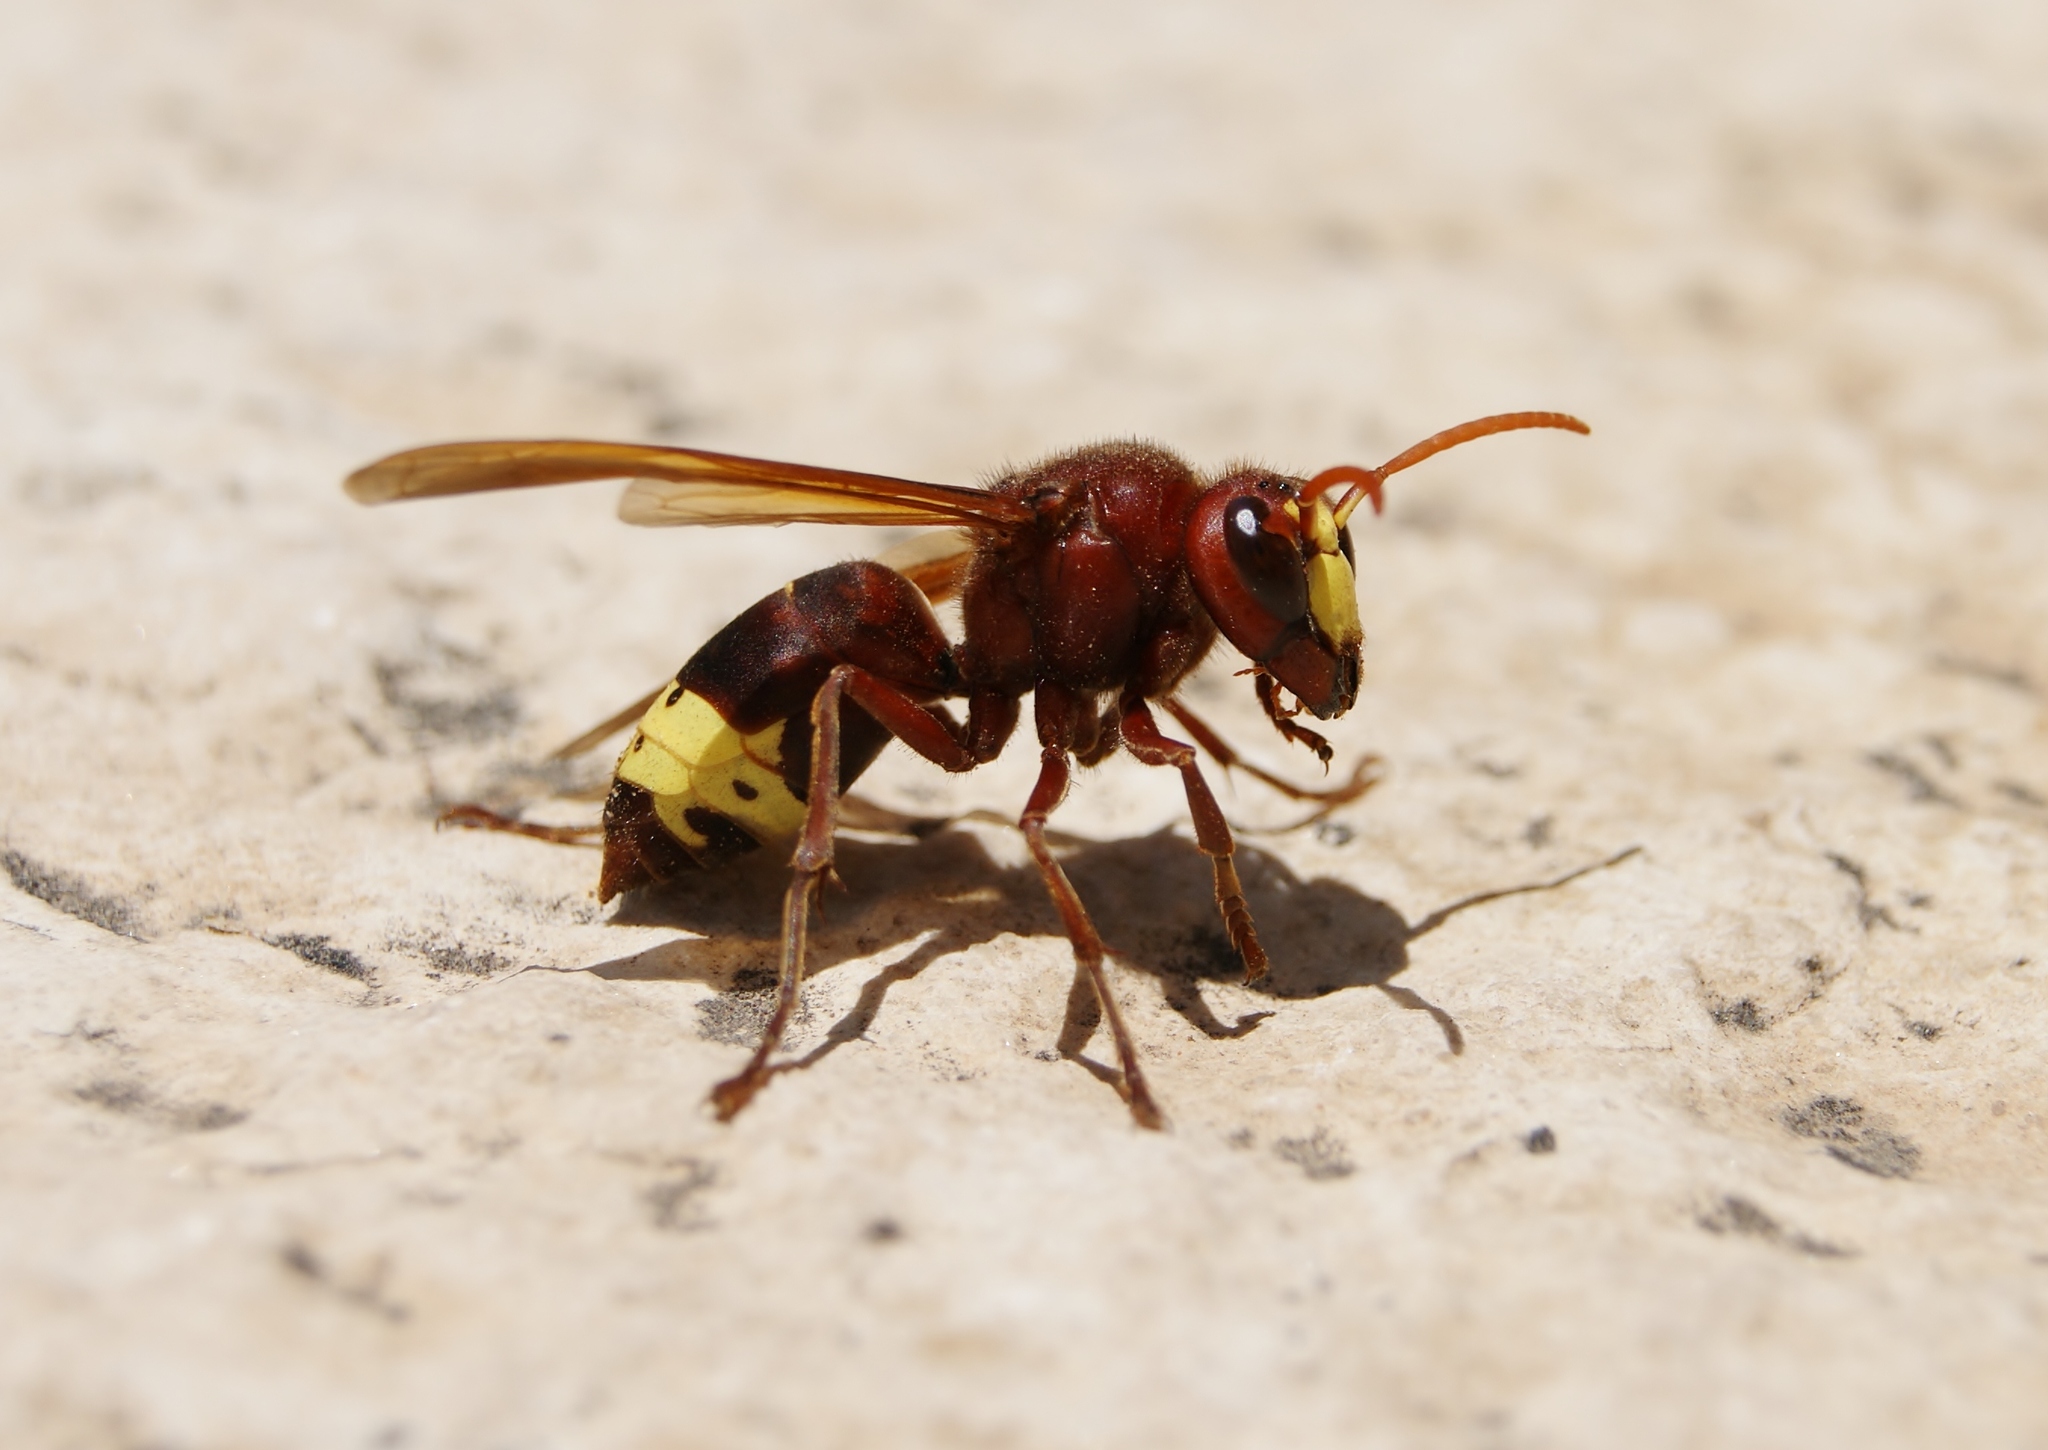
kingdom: Animalia
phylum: Arthropoda
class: Insecta
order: Hymenoptera
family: Vespidae
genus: Vespa
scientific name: Vespa orientalis
